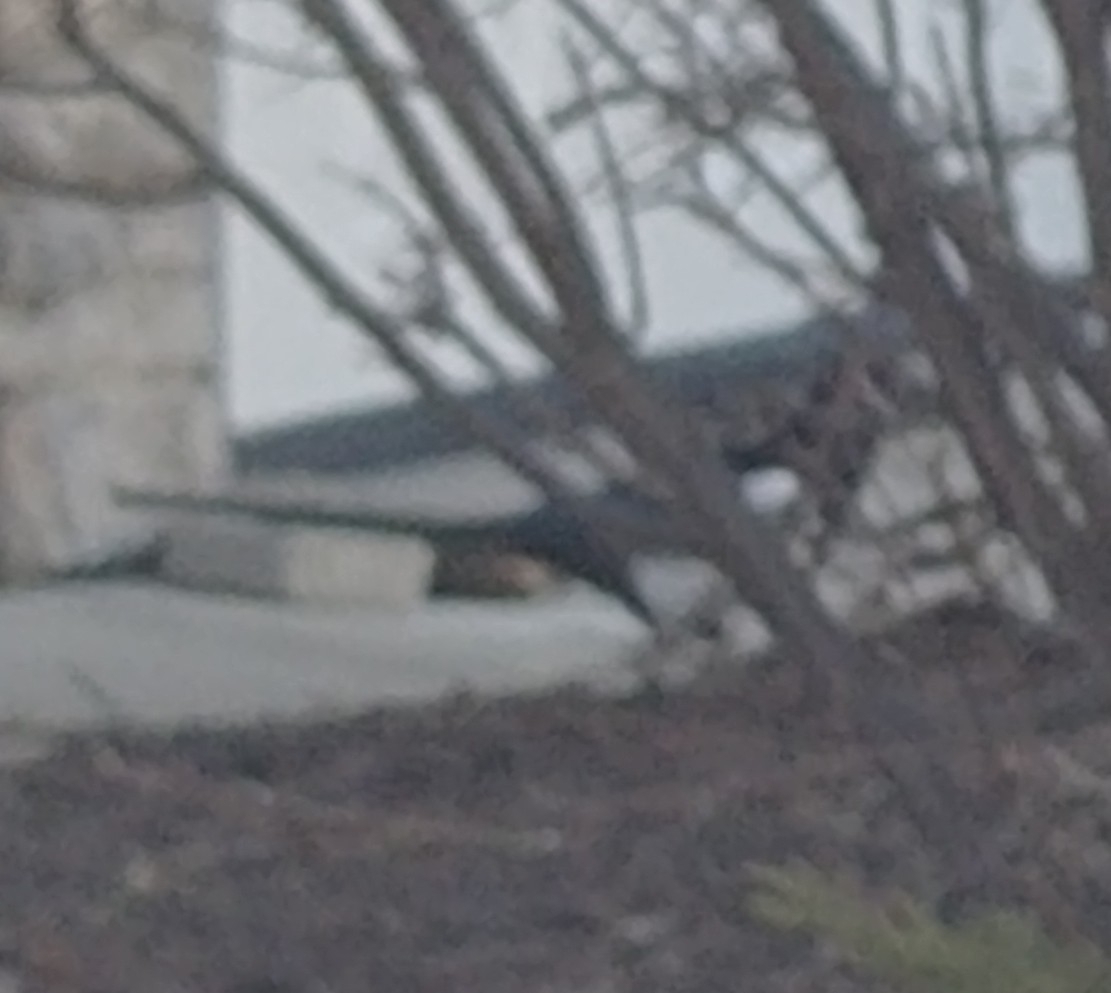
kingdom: Animalia
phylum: Chordata
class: Aves
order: Passeriformes
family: Corvidae
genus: Pica
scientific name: Pica hudsonia
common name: Black-billed magpie
